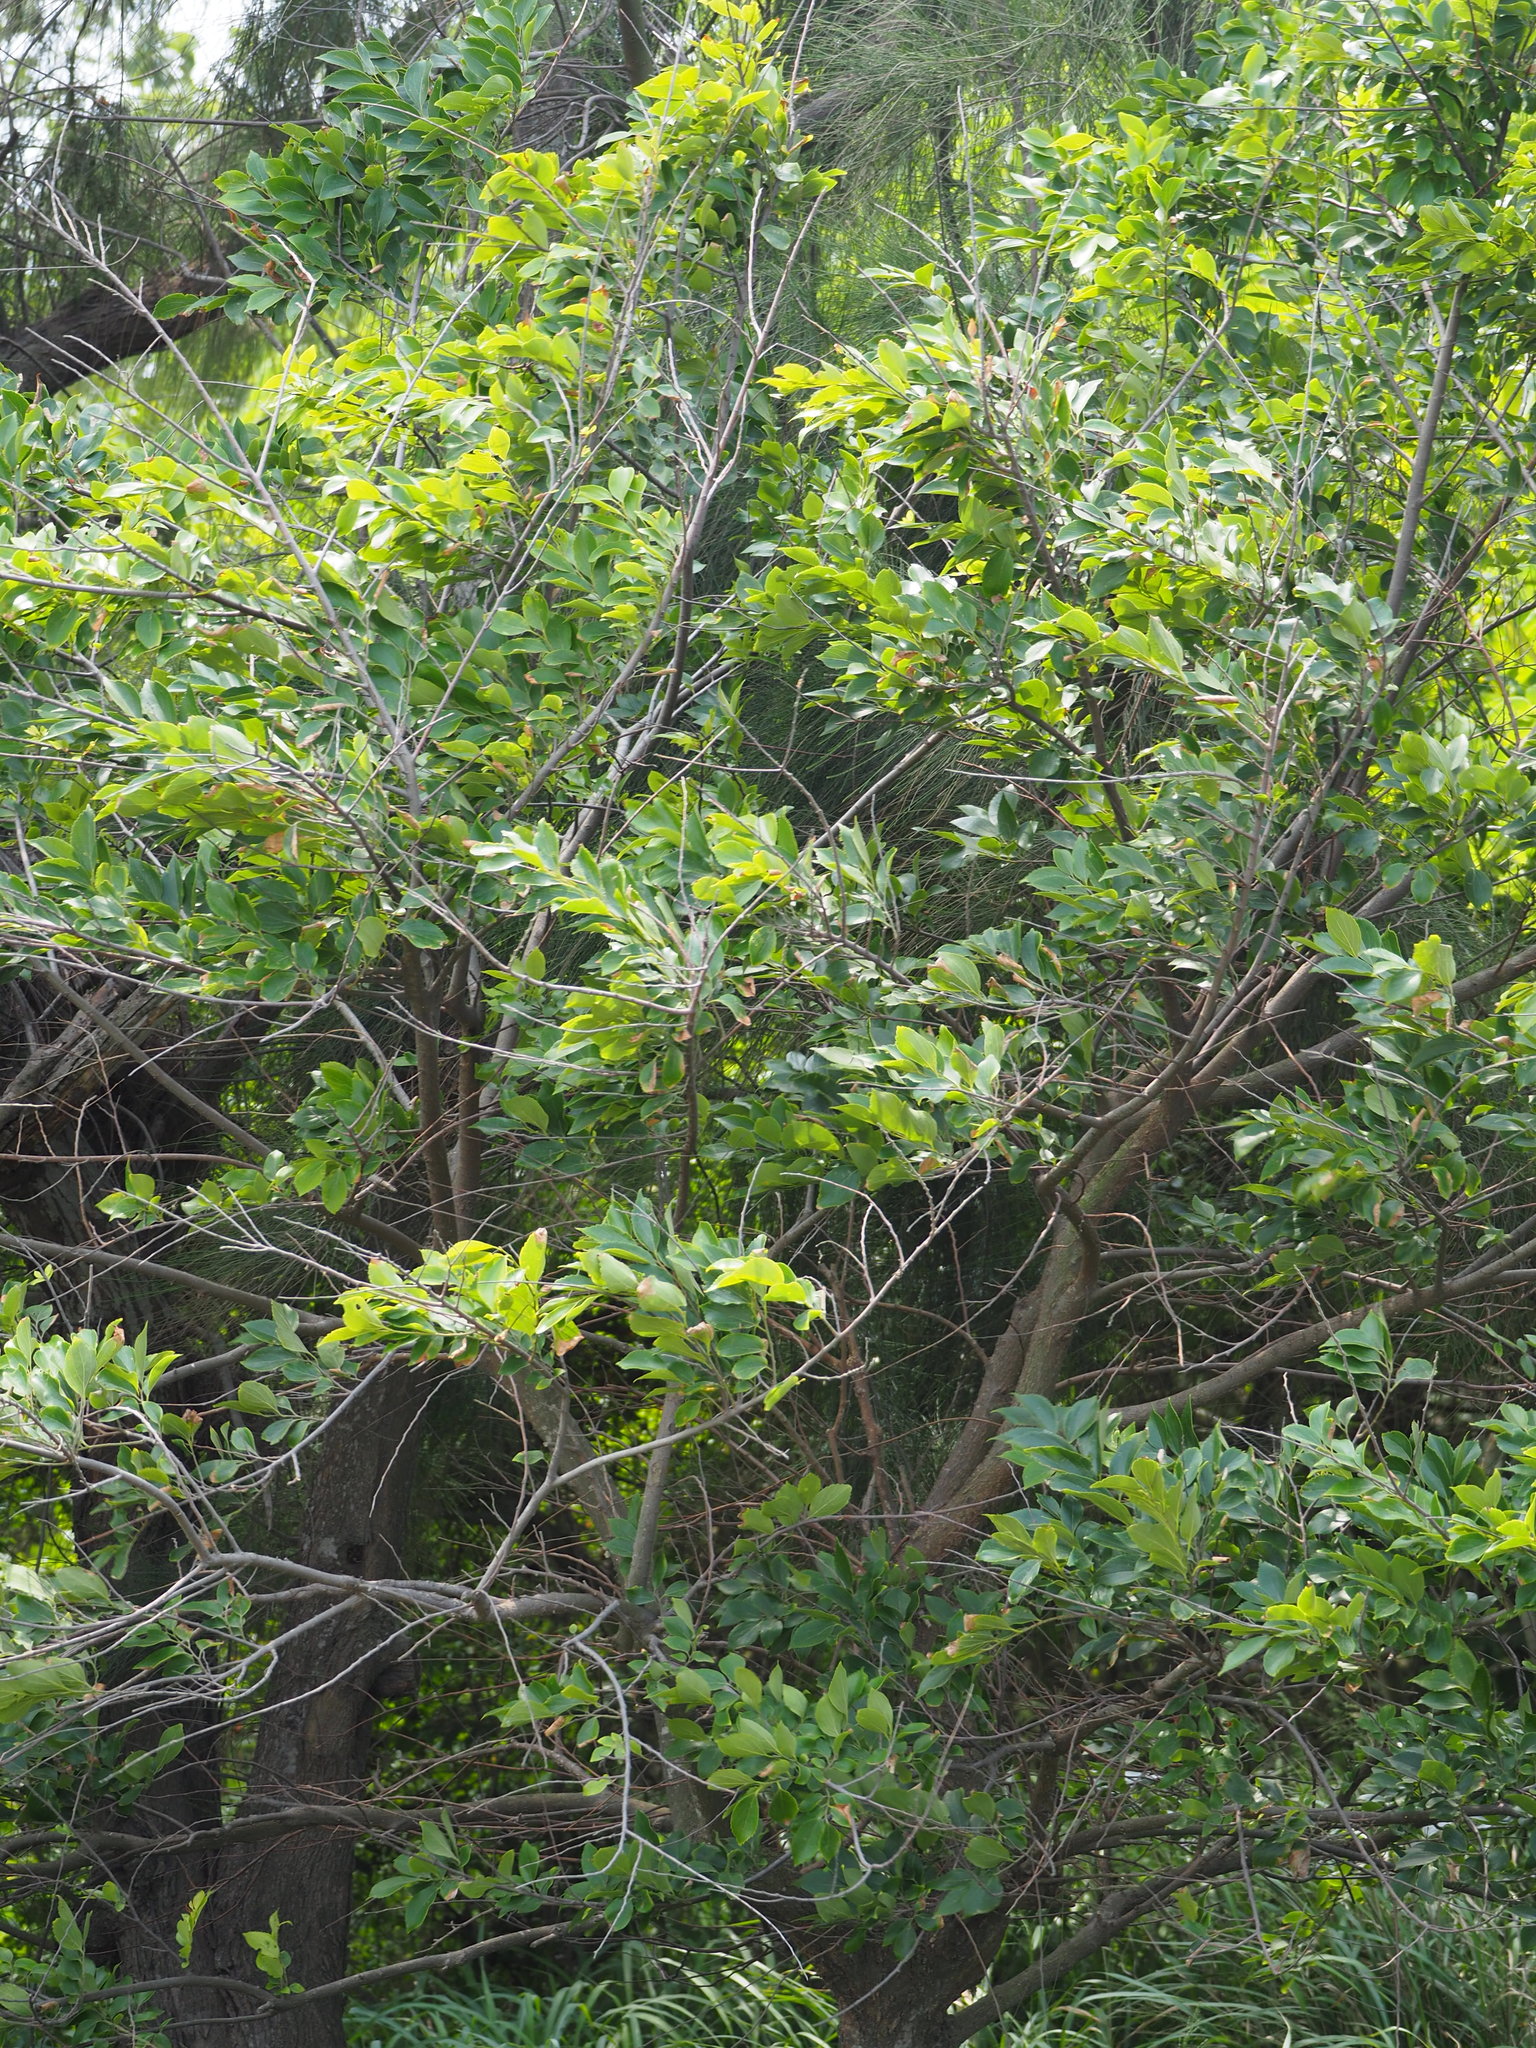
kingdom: Plantae
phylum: Tracheophyta
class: Magnoliopsida
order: Rosales
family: Cannabaceae
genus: Celtis
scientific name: Celtis sinensis
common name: Chinese hackberry
